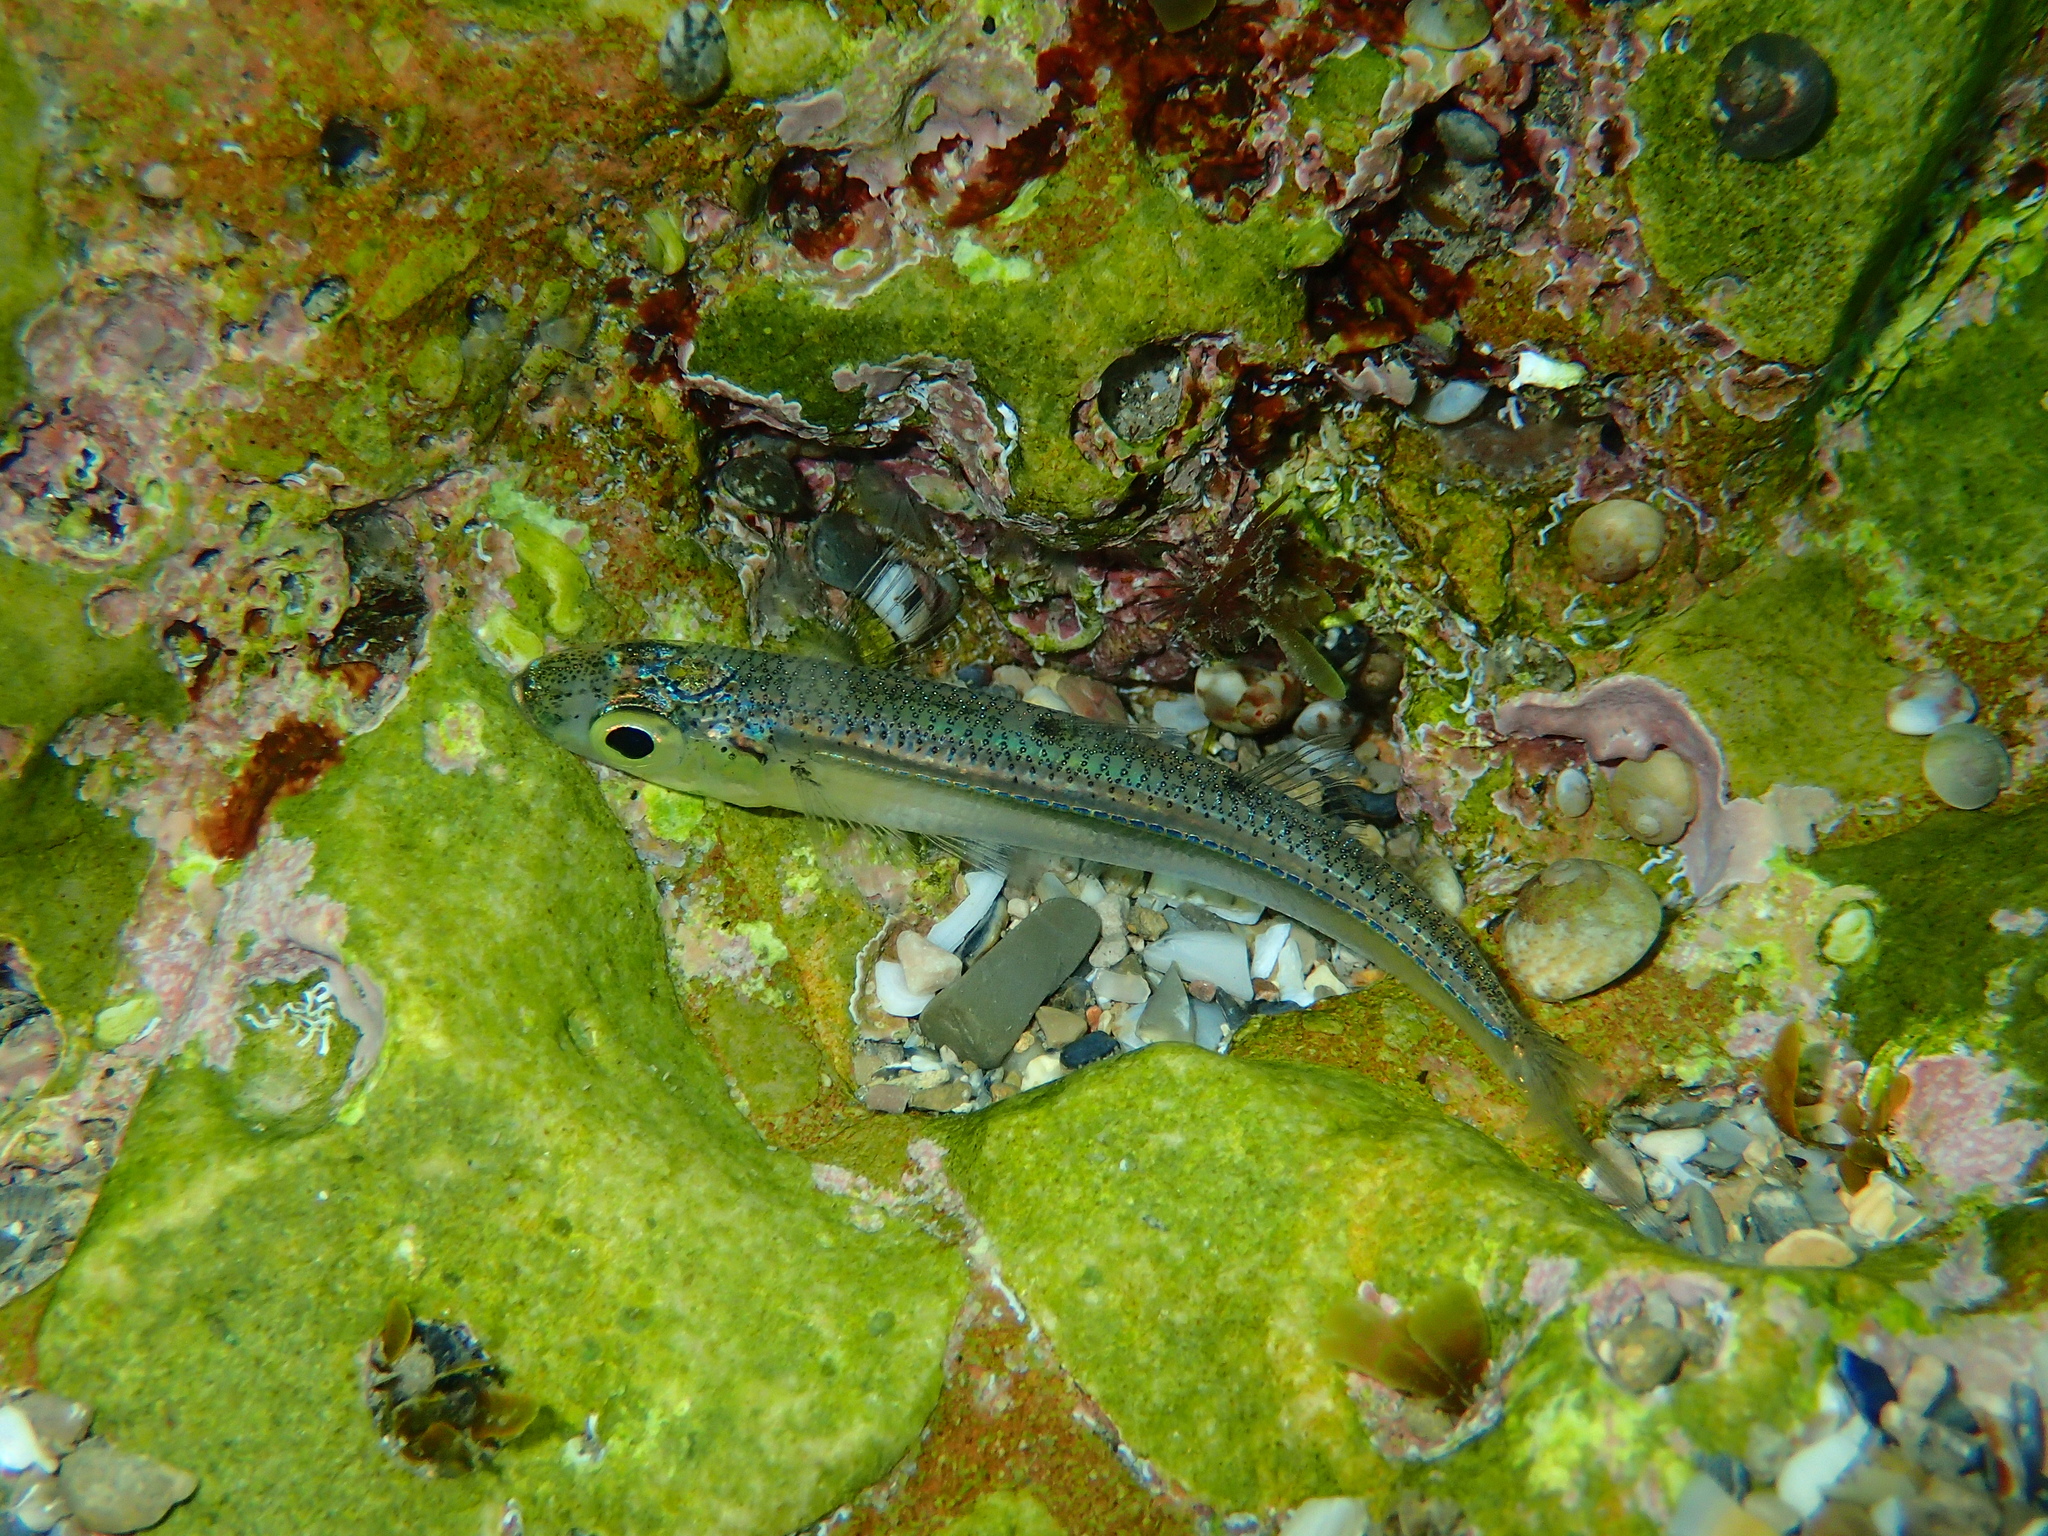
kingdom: Animalia
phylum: Chordata
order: Atheriniformes
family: Atherinidae
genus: Atherina
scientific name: Atherina boyeri
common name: Big-scale sand smelt
